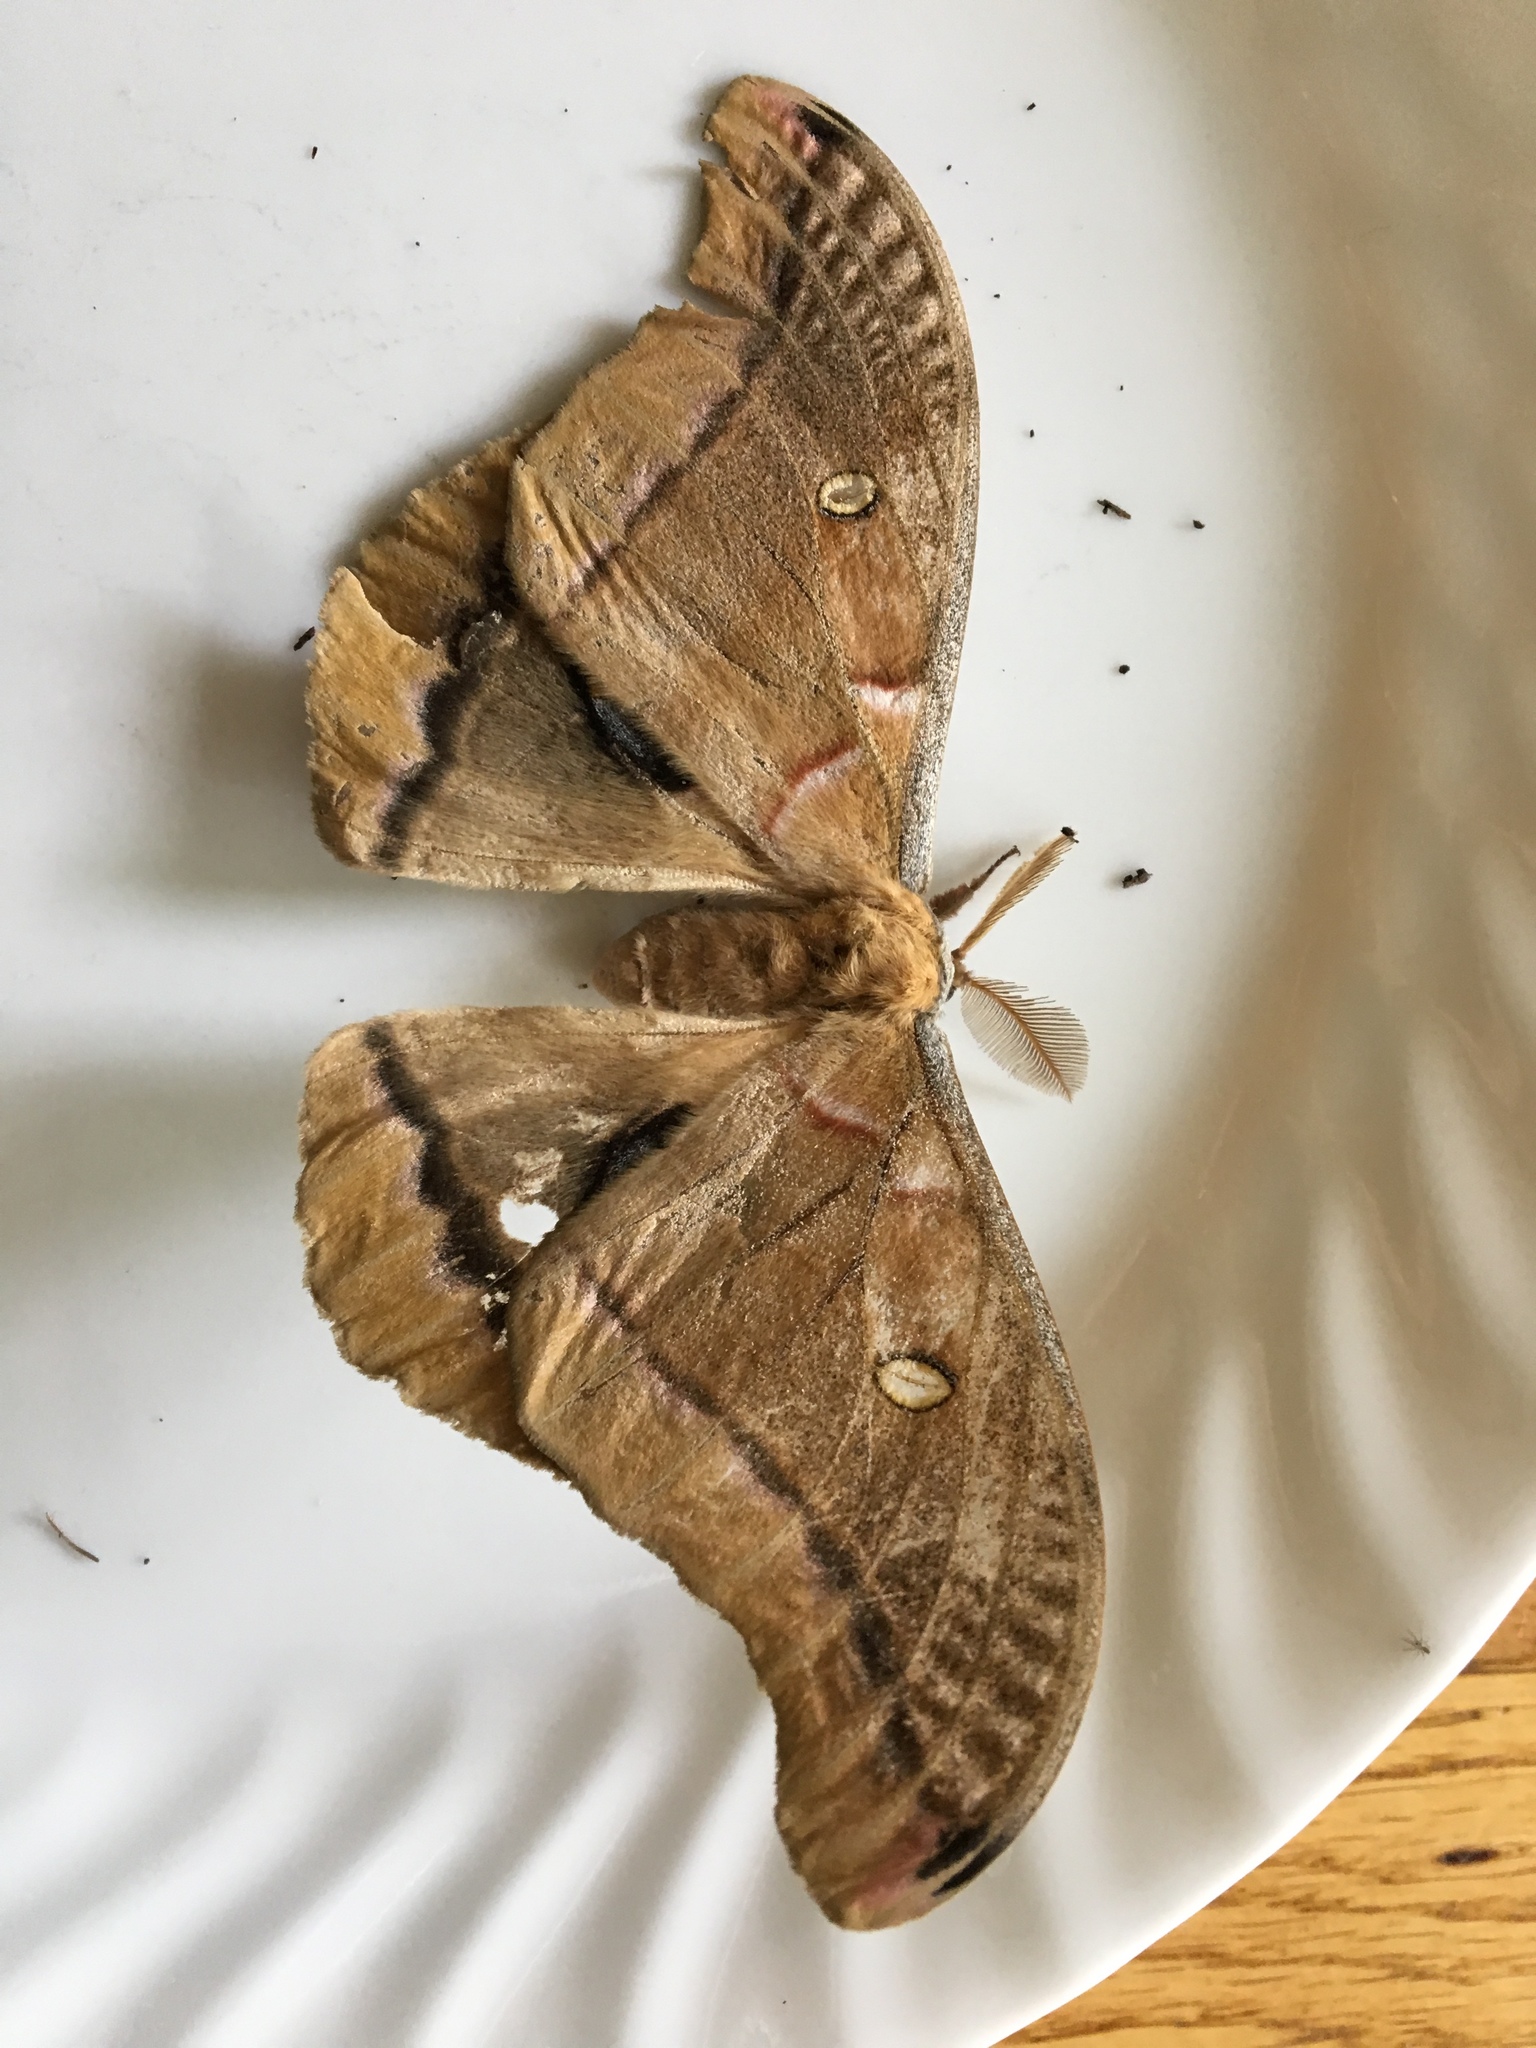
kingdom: Animalia
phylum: Arthropoda
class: Insecta
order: Lepidoptera
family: Saturniidae
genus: Antheraea
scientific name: Antheraea polyphemus
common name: Polyphemus moth
